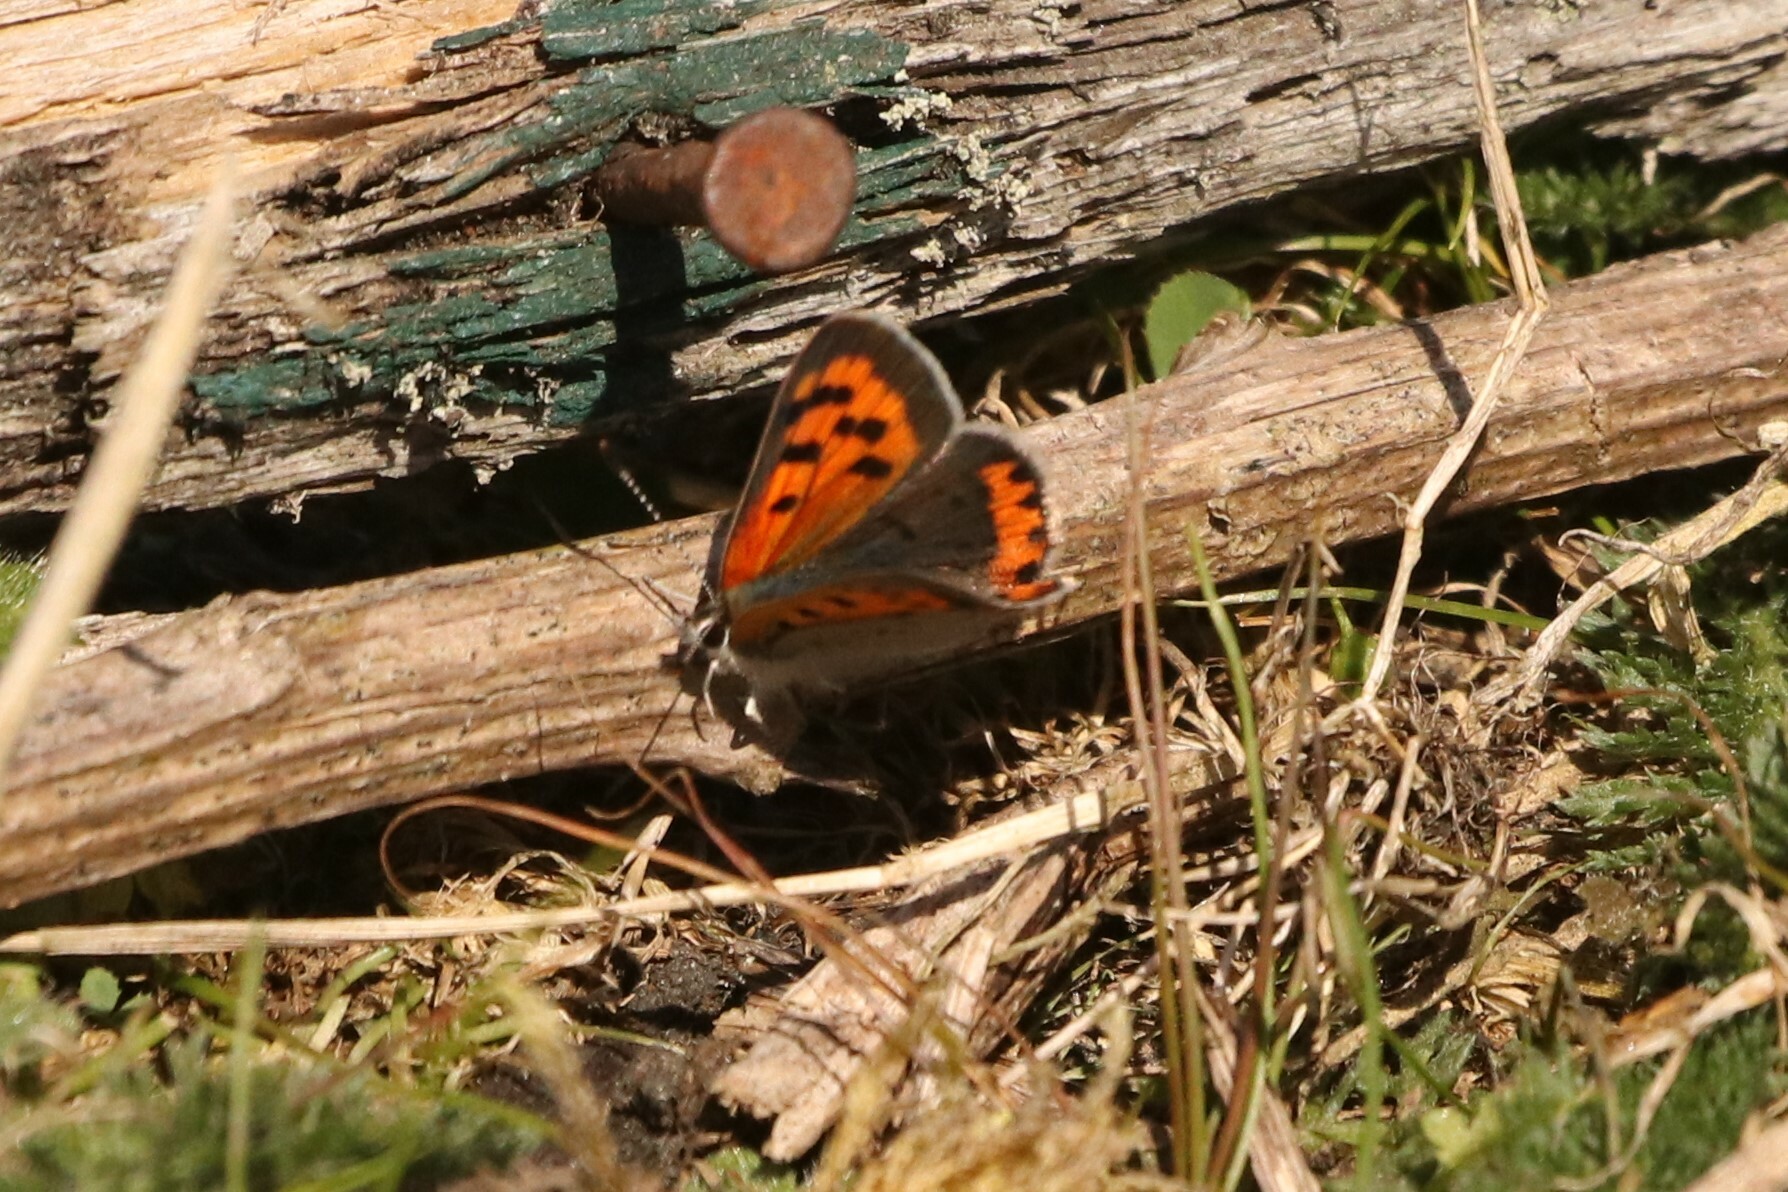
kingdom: Animalia
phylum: Arthropoda
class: Insecta
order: Lepidoptera
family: Lycaenidae
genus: Lycaena
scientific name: Lycaena hypophlaeas
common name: American copper
